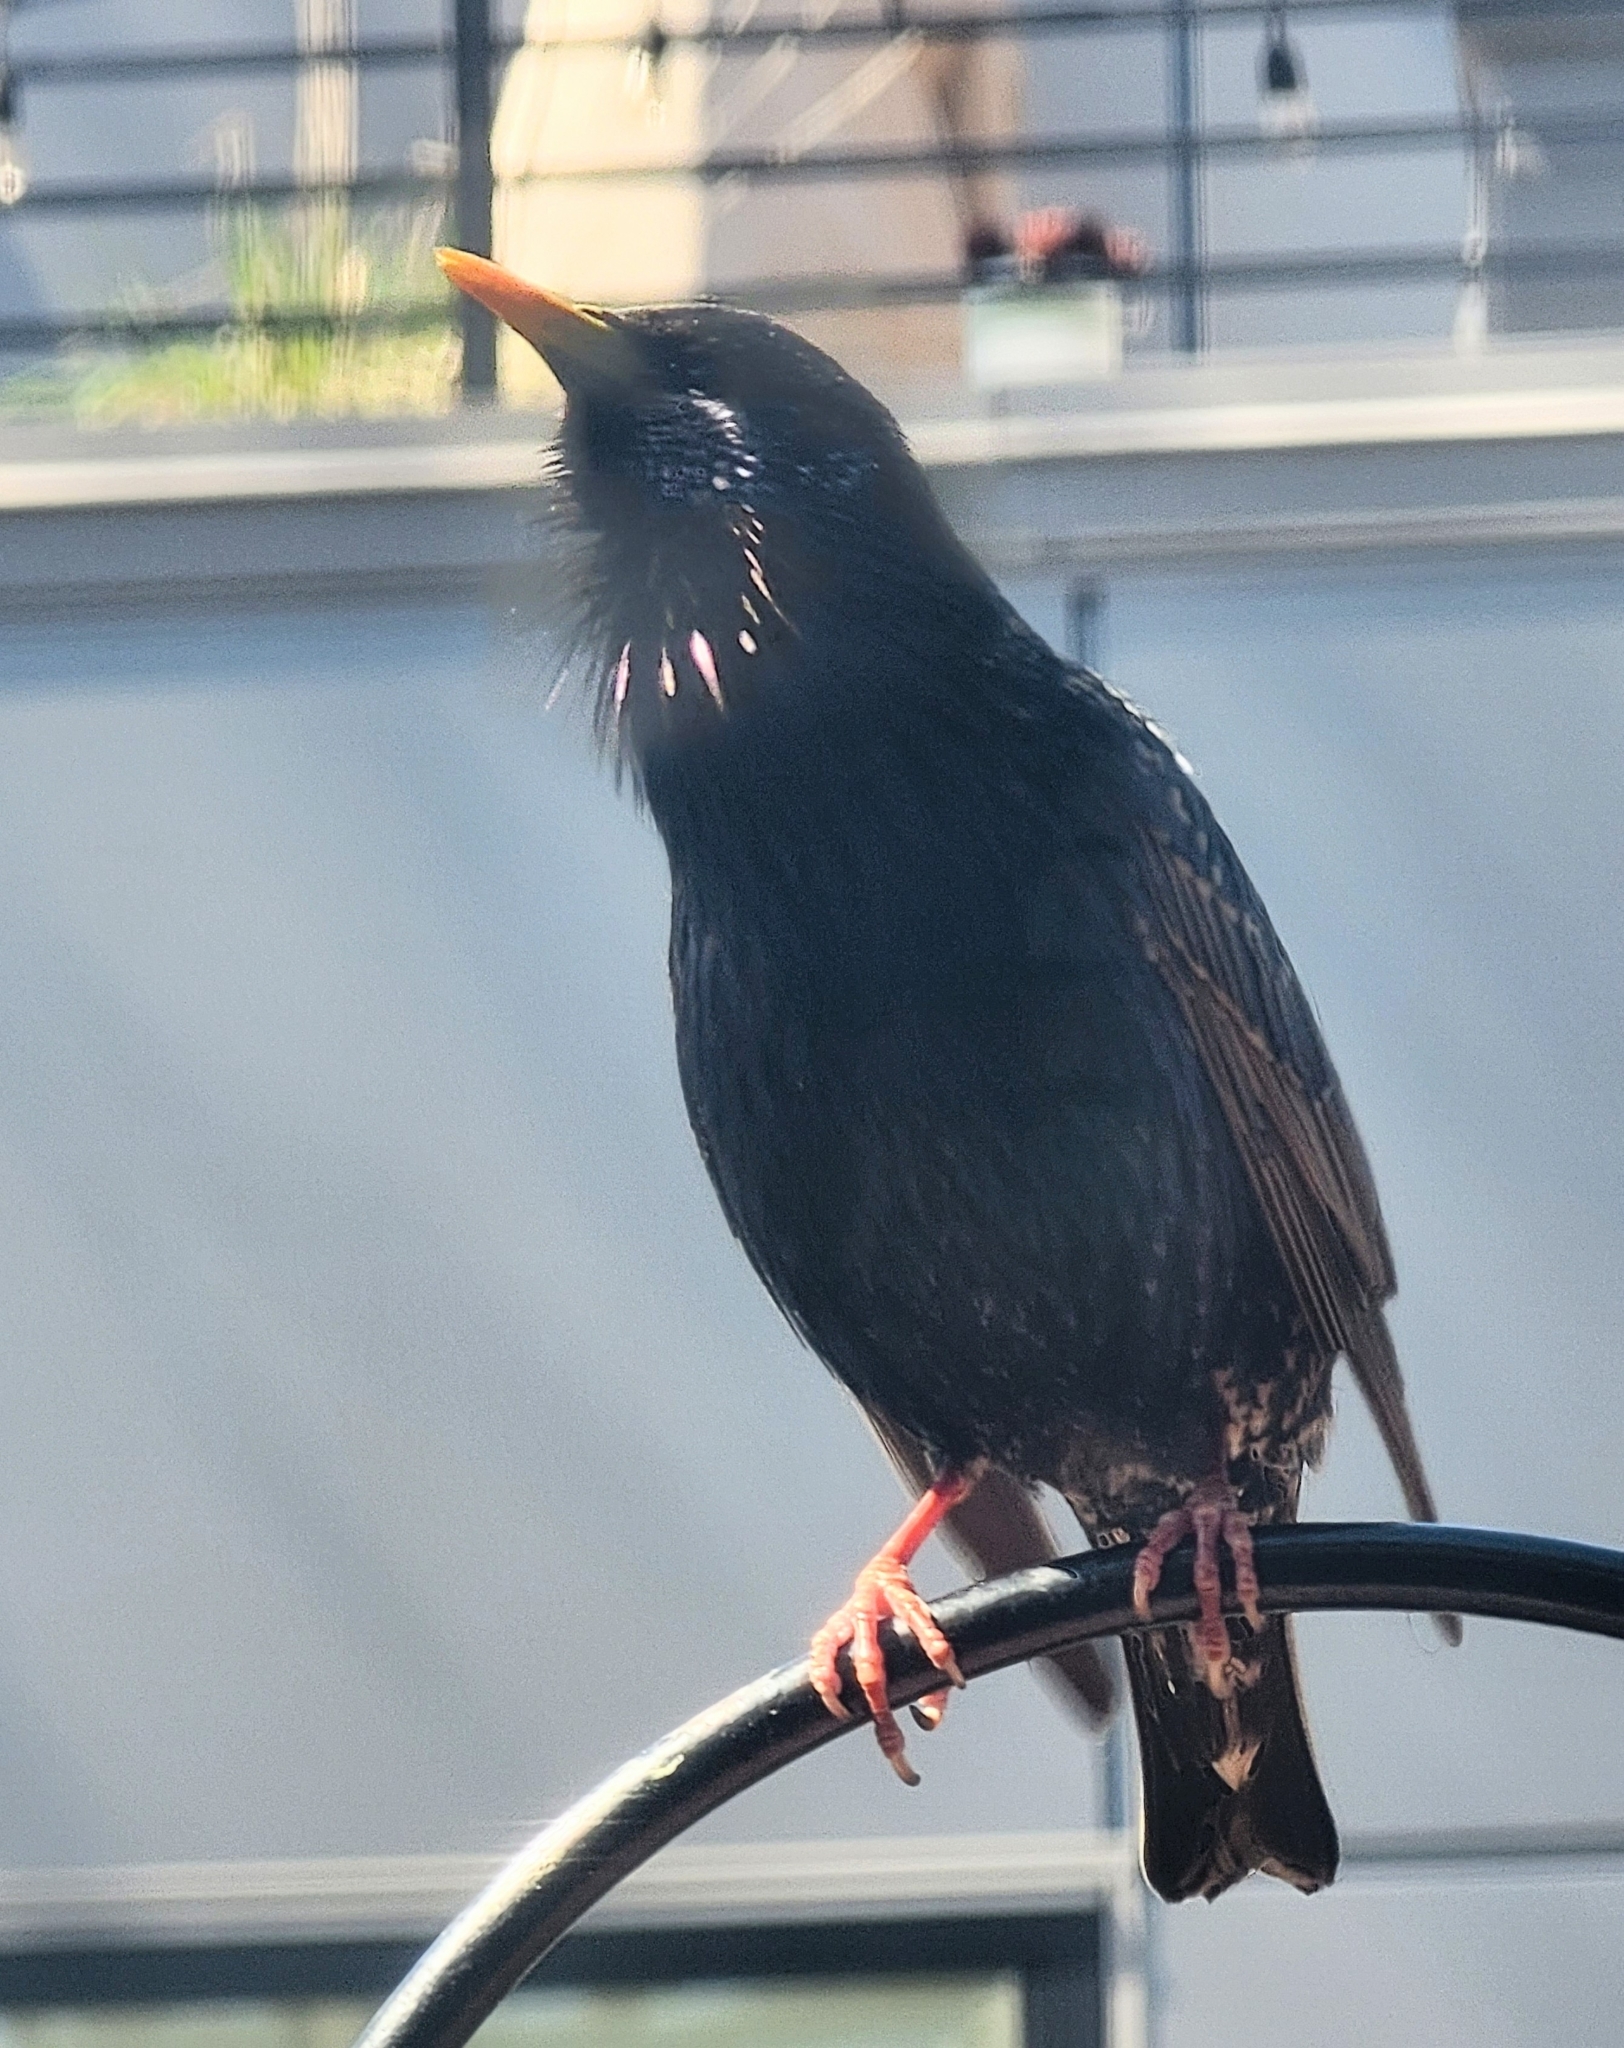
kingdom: Animalia
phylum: Chordata
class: Aves
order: Passeriformes
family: Sturnidae
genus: Sturnus
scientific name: Sturnus vulgaris
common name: Common starling
